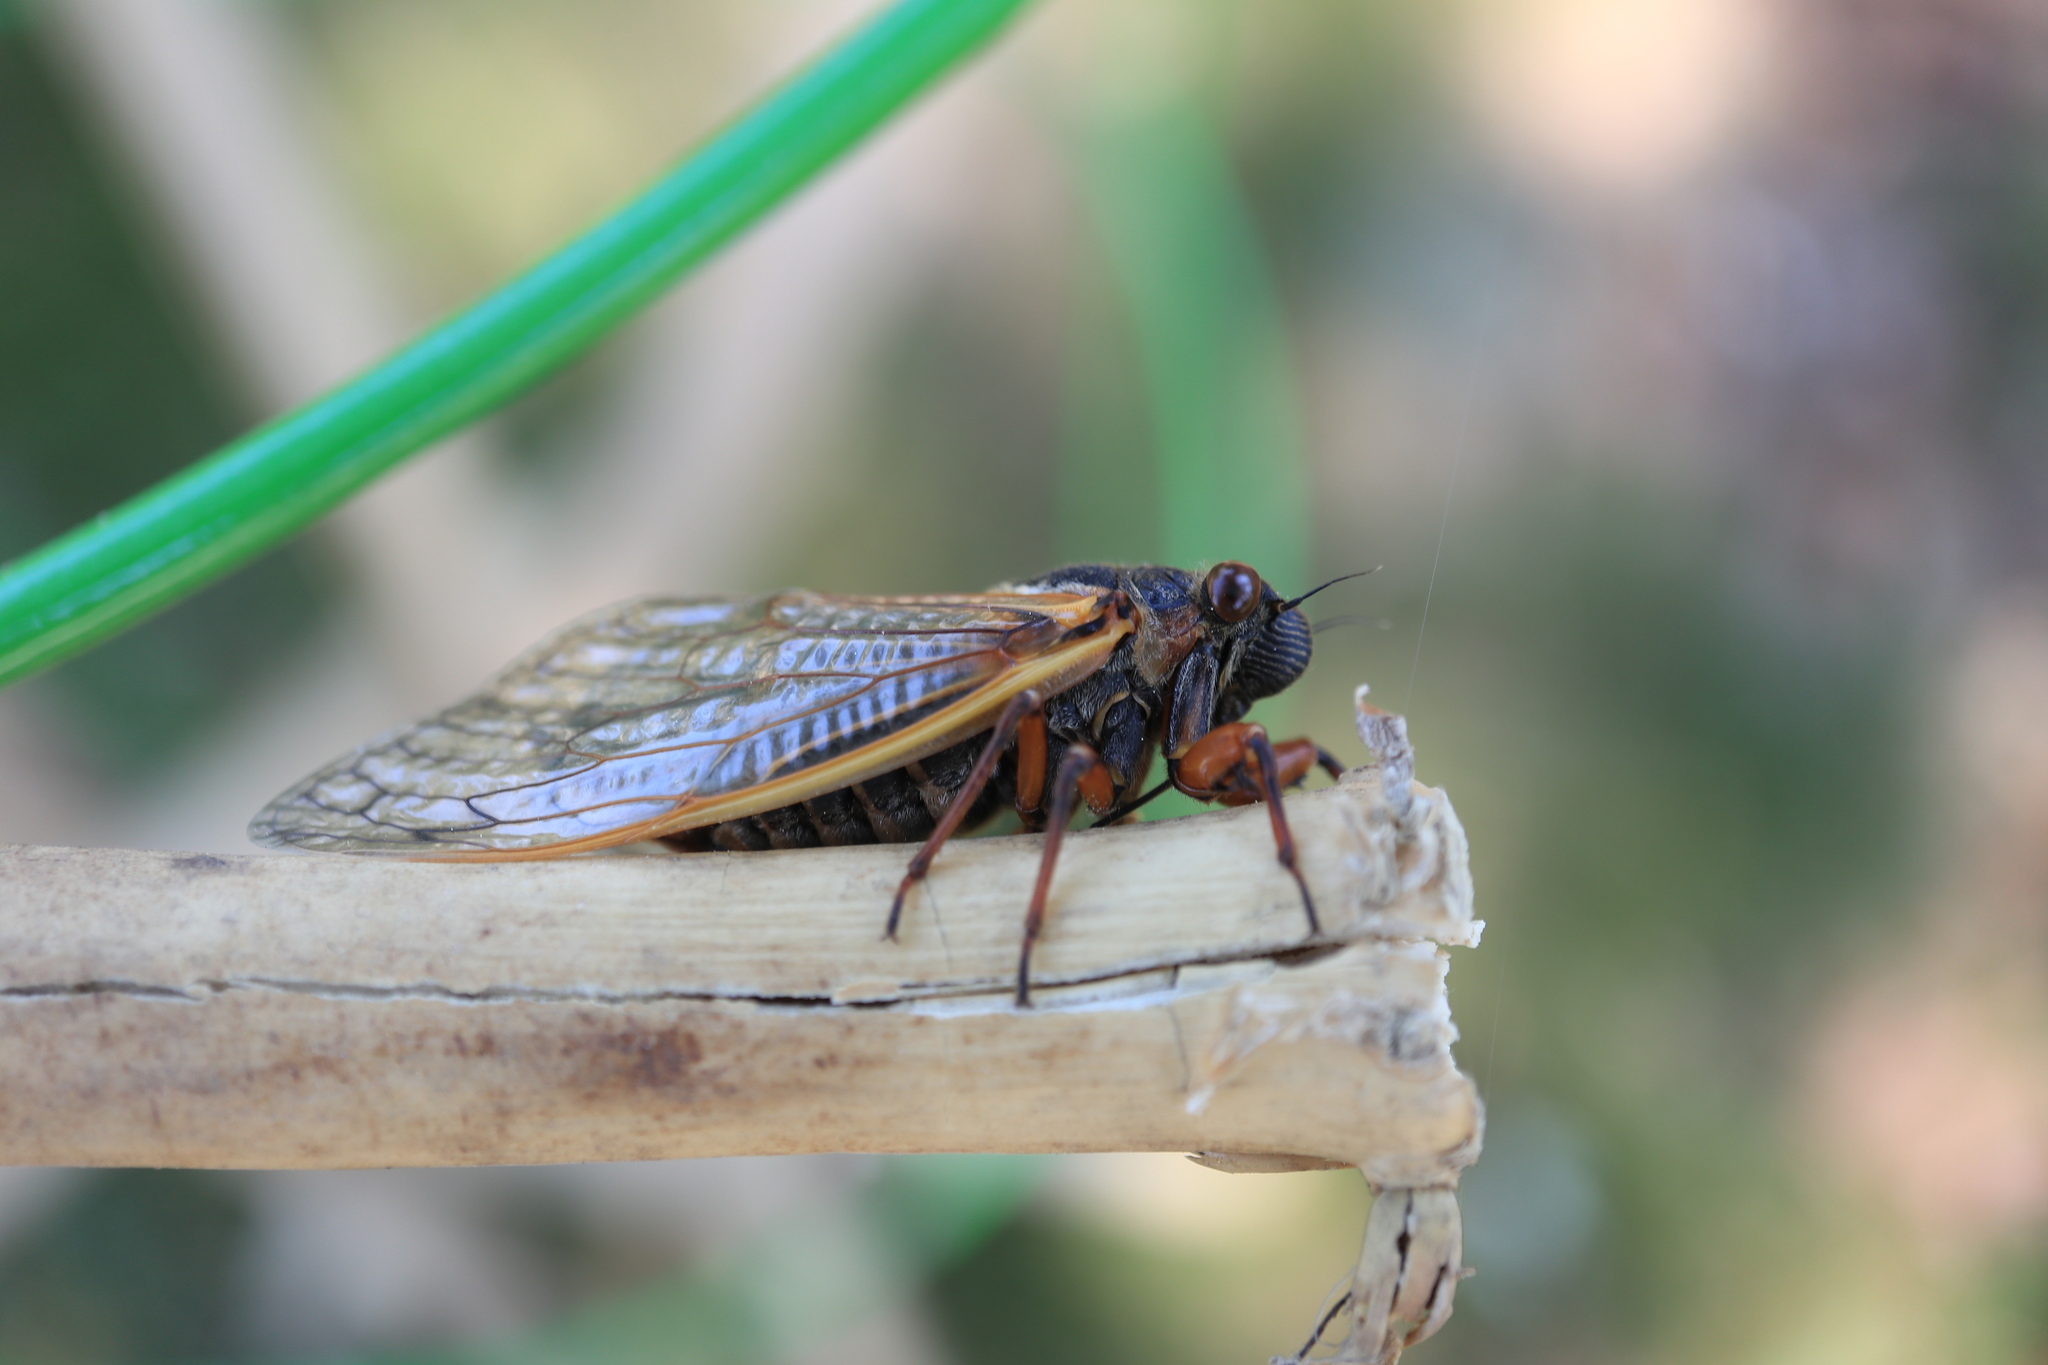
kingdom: Animalia
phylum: Arthropoda
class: Insecta
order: Hemiptera
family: Cicadidae
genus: Magicicada
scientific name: Magicicada septendecim
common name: Periodical cicada
